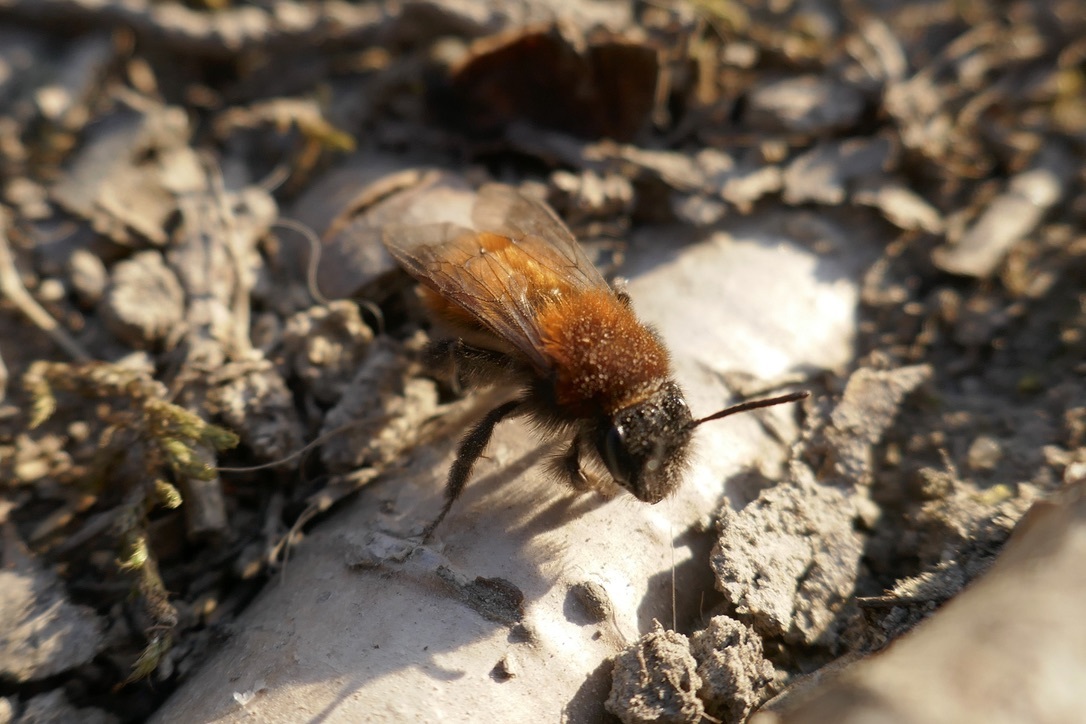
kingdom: Animalia
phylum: Arthropoda
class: Insecta
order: Hymenoptera
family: Andrenidae
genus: Andrena
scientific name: Andrena fulva
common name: Tawny mining bee
